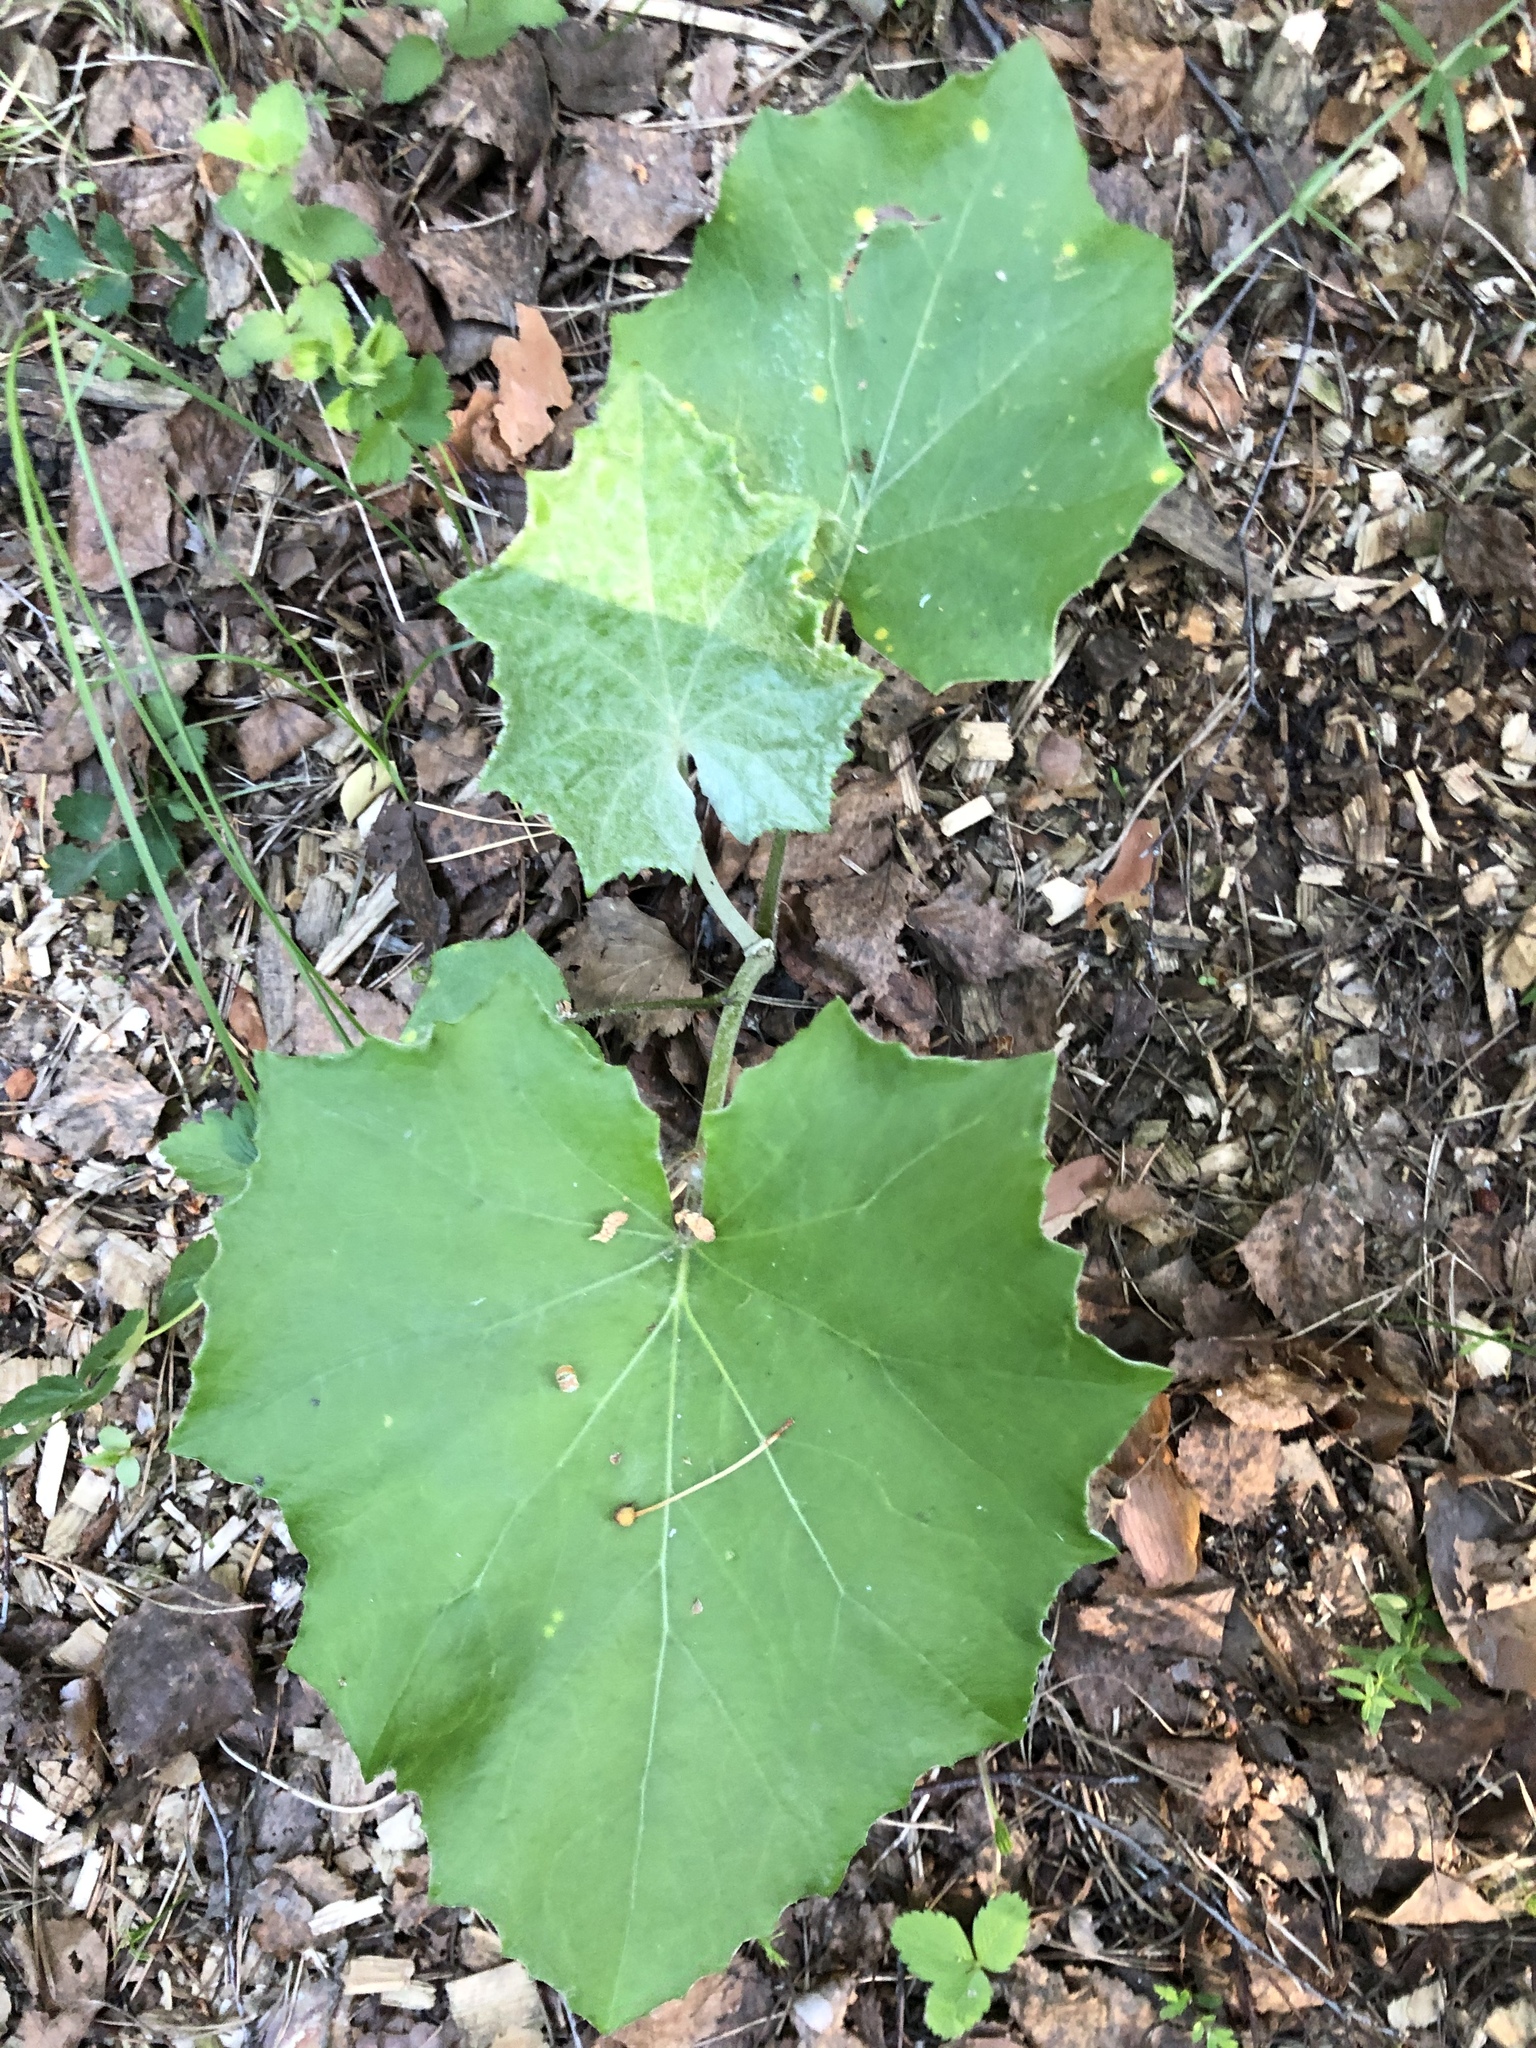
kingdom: Plantae
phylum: Tracheophyta
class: Magnoliopsida
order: Asterales
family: Asteraceae
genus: Tussilago
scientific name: Tussilago farfara
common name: Coltsfoot
